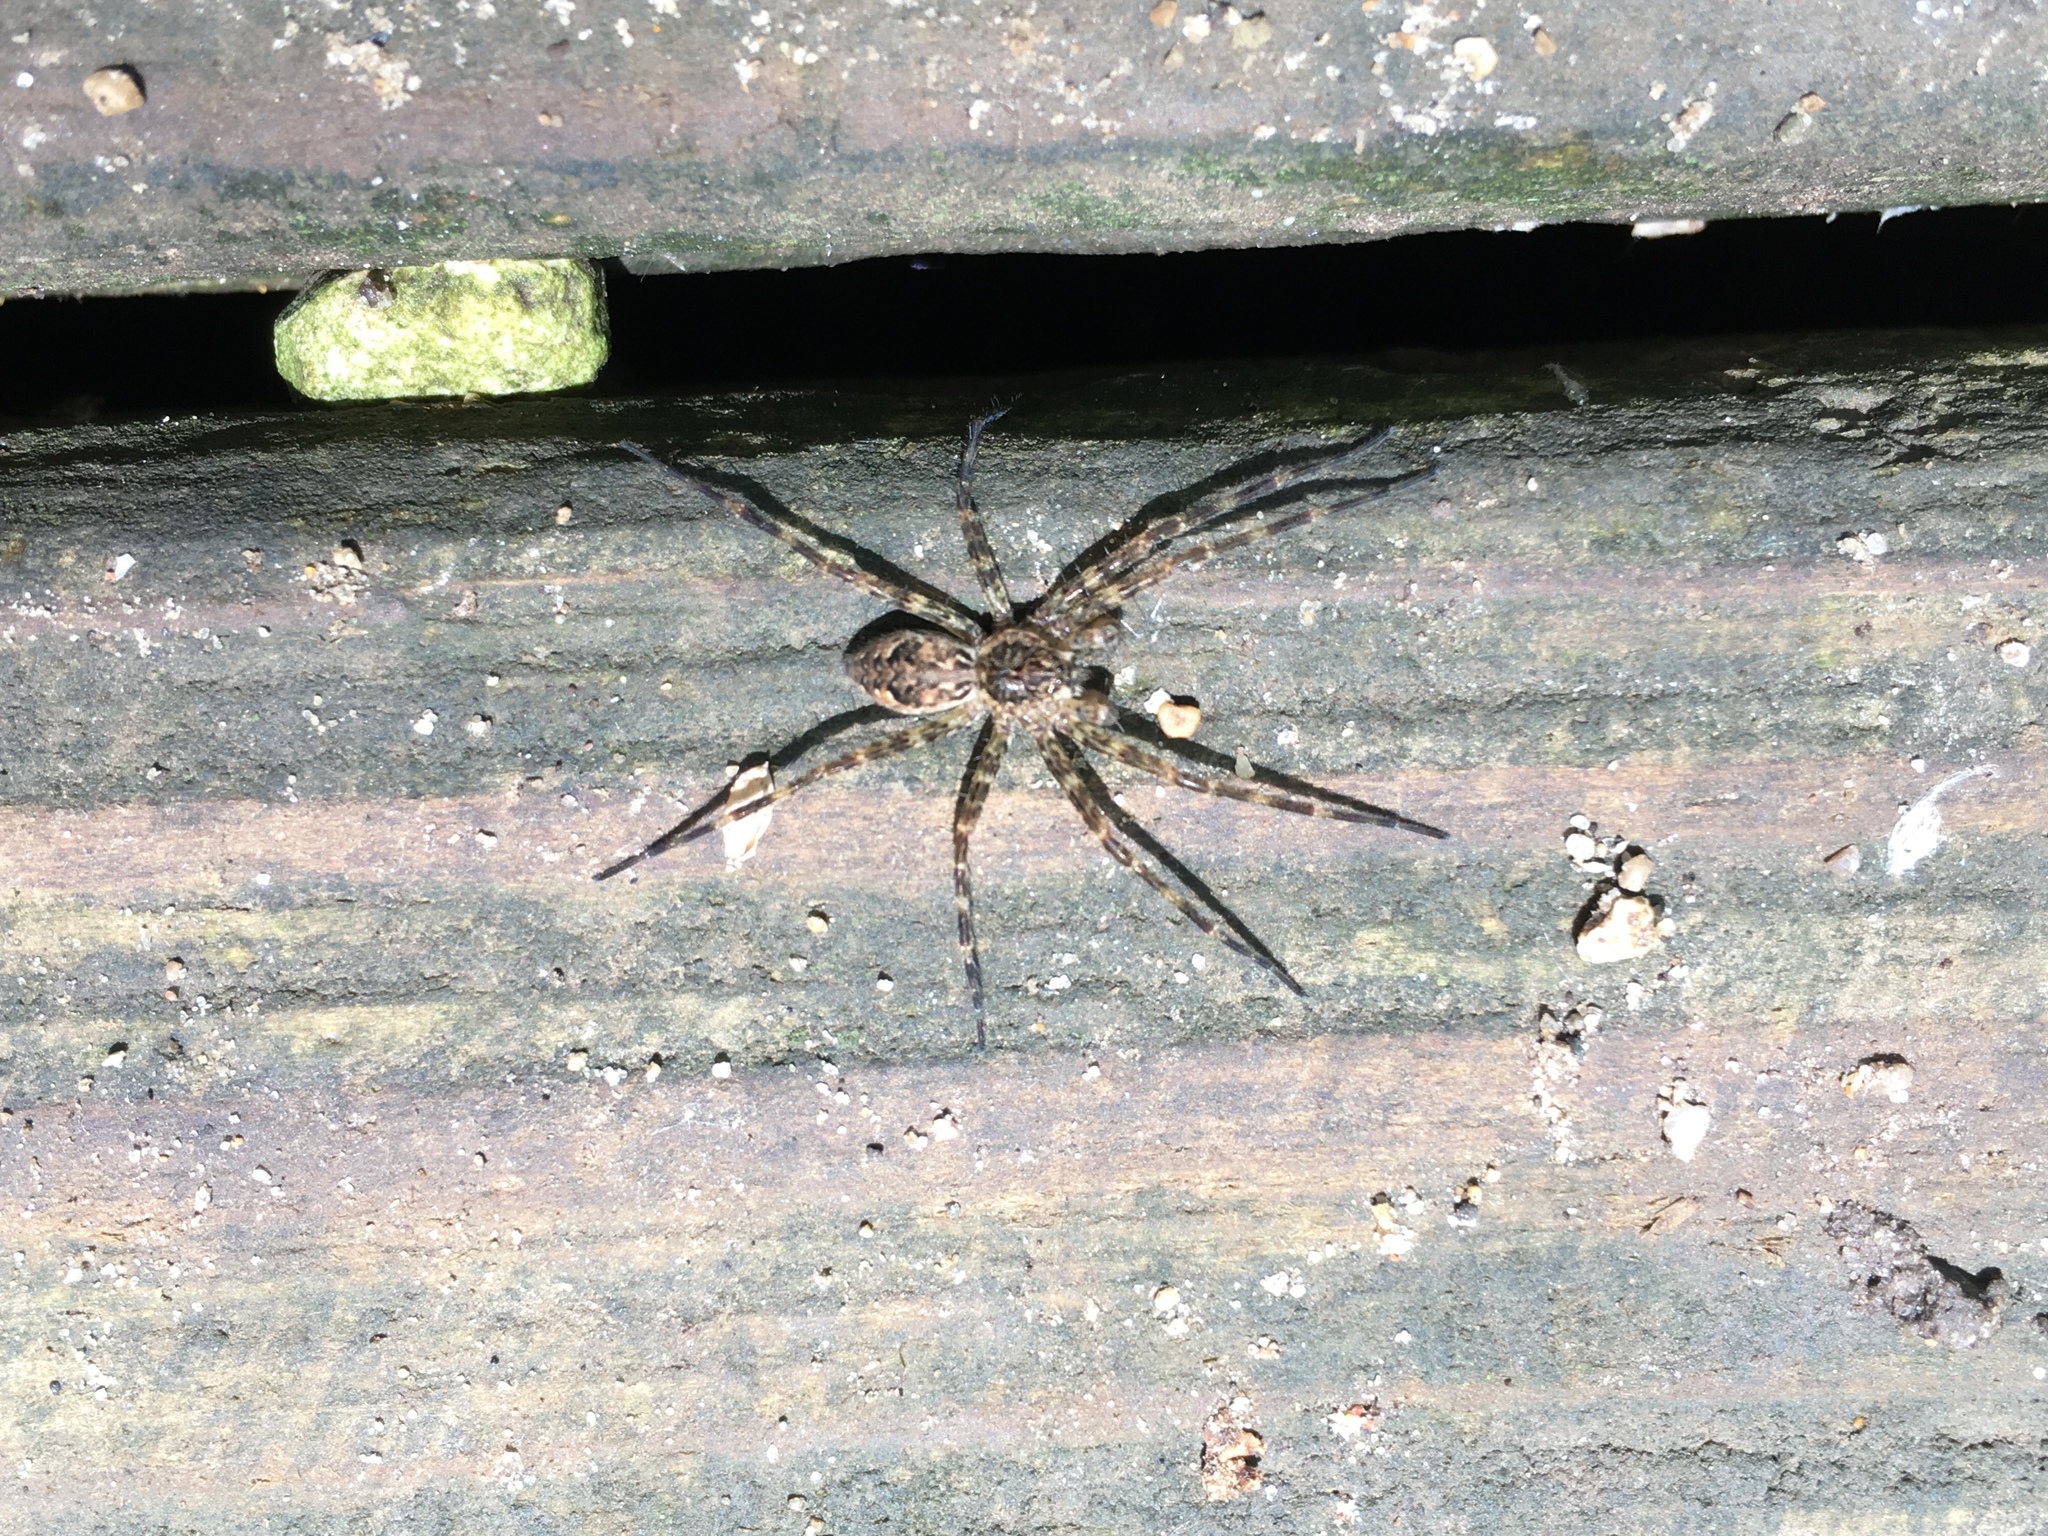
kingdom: Animalia
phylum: Arthropoda
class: Arachnida
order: Araneae
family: Pisauridae
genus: Dolomedes
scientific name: Dolomedes tenebrosus
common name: Dark fishing spider
